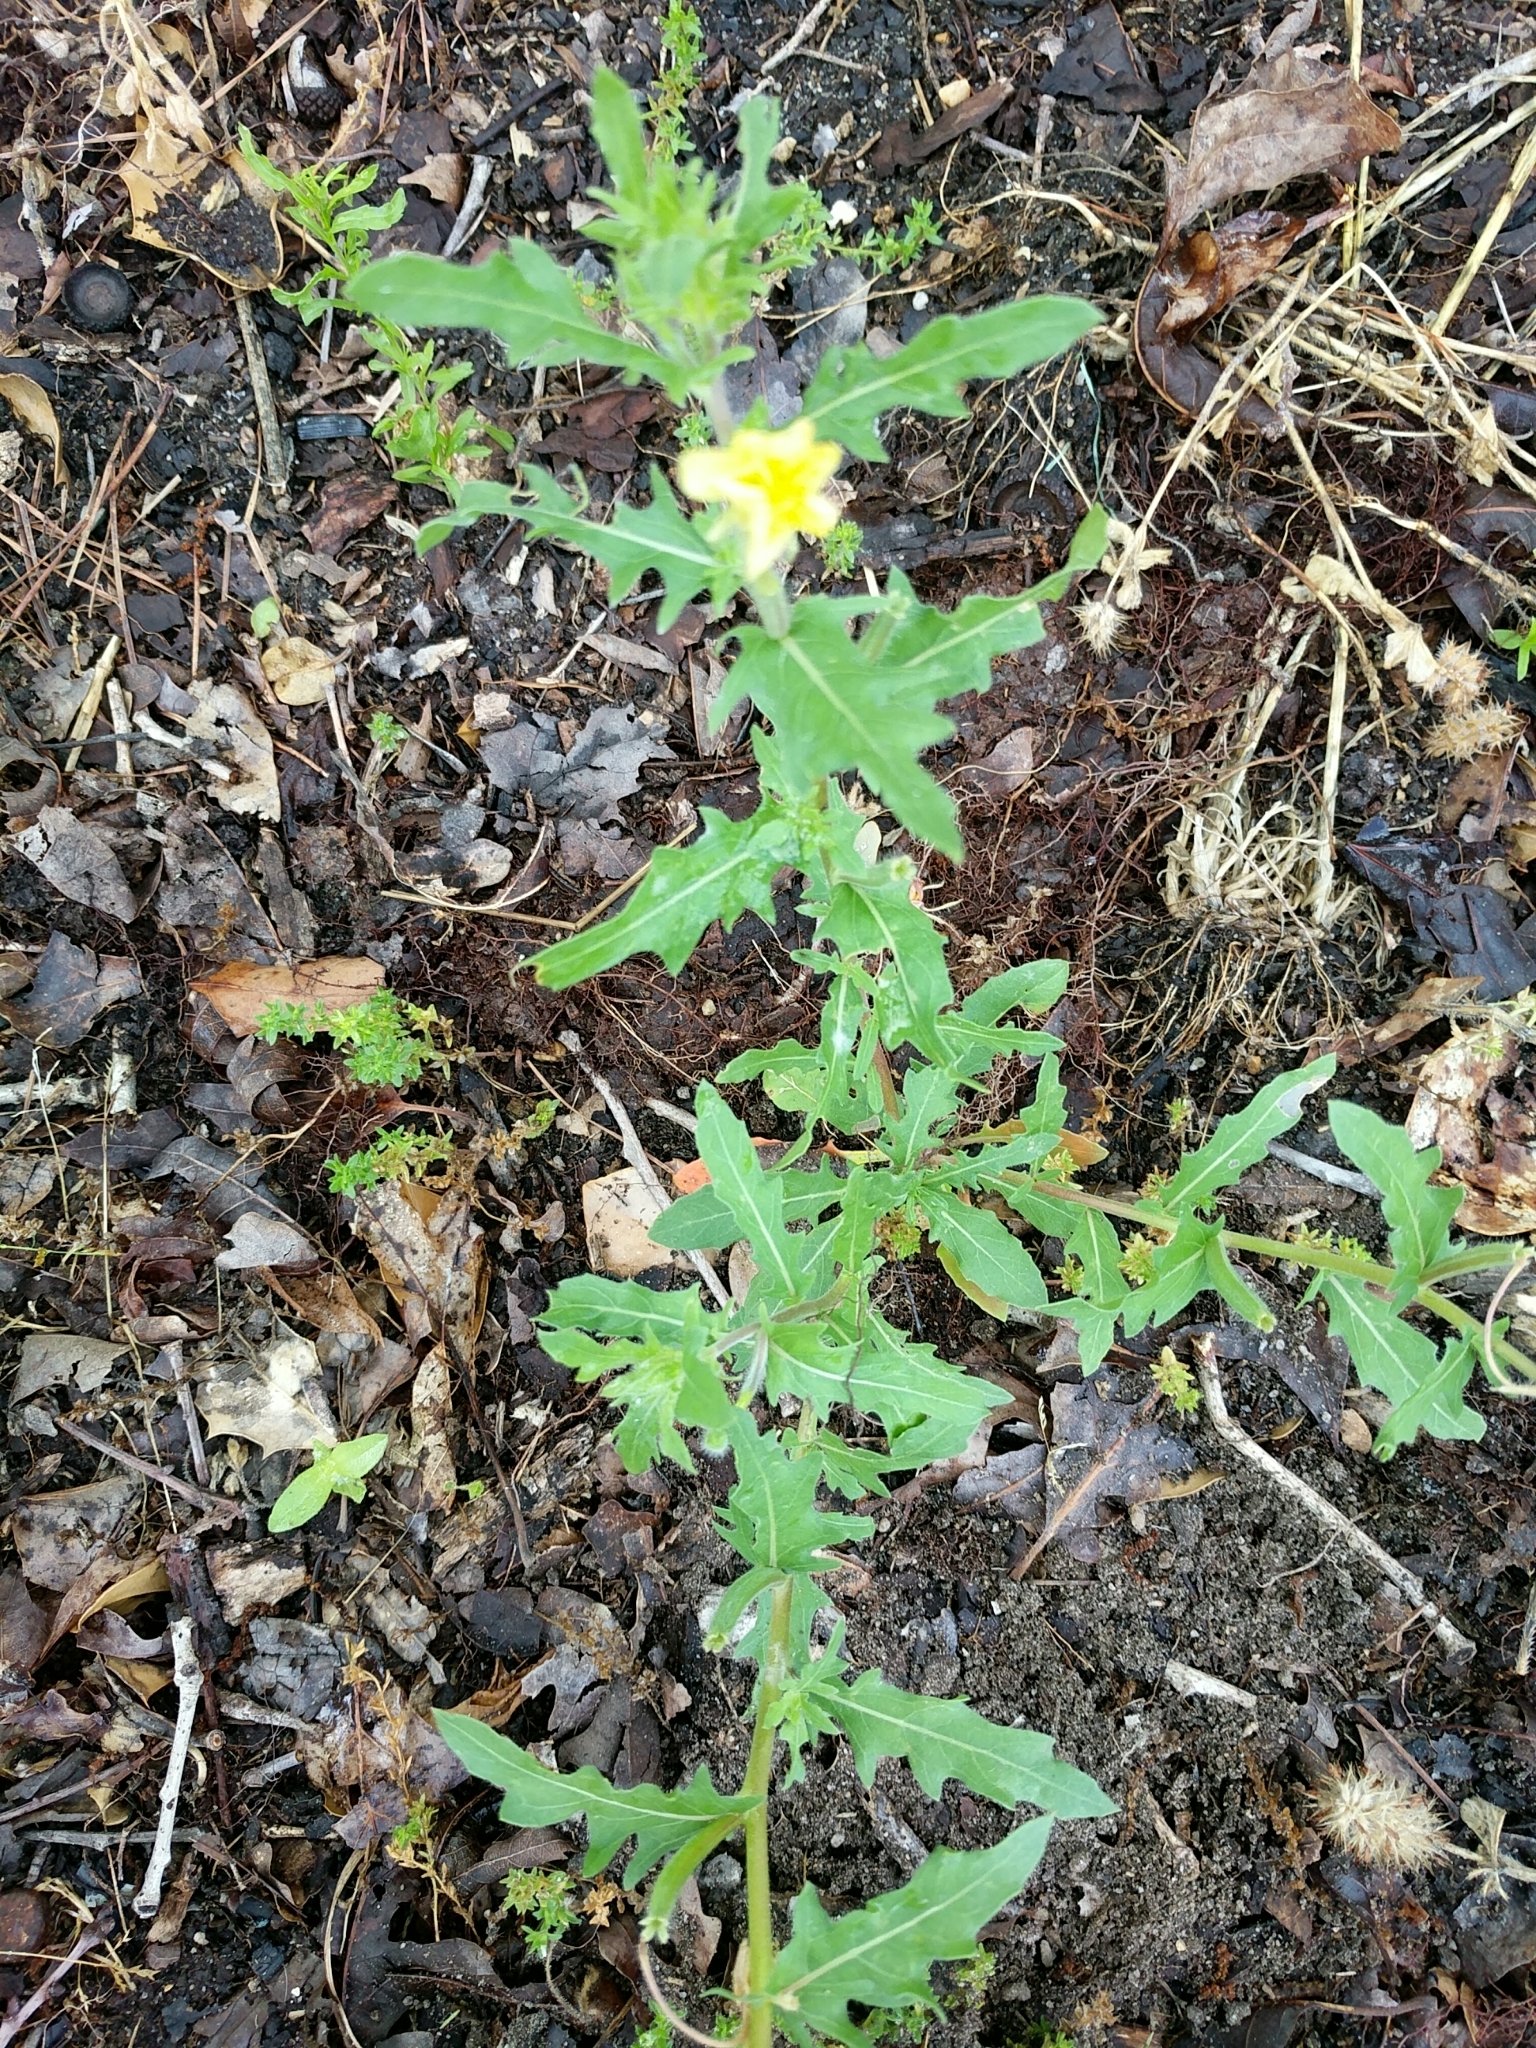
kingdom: Plantae
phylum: Tracheophyta
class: Magnoliopsida
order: Myrtales
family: Onagraceae
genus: Oenothera
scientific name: Oenothera laciniata
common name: Cut-leaved evening-primrose
